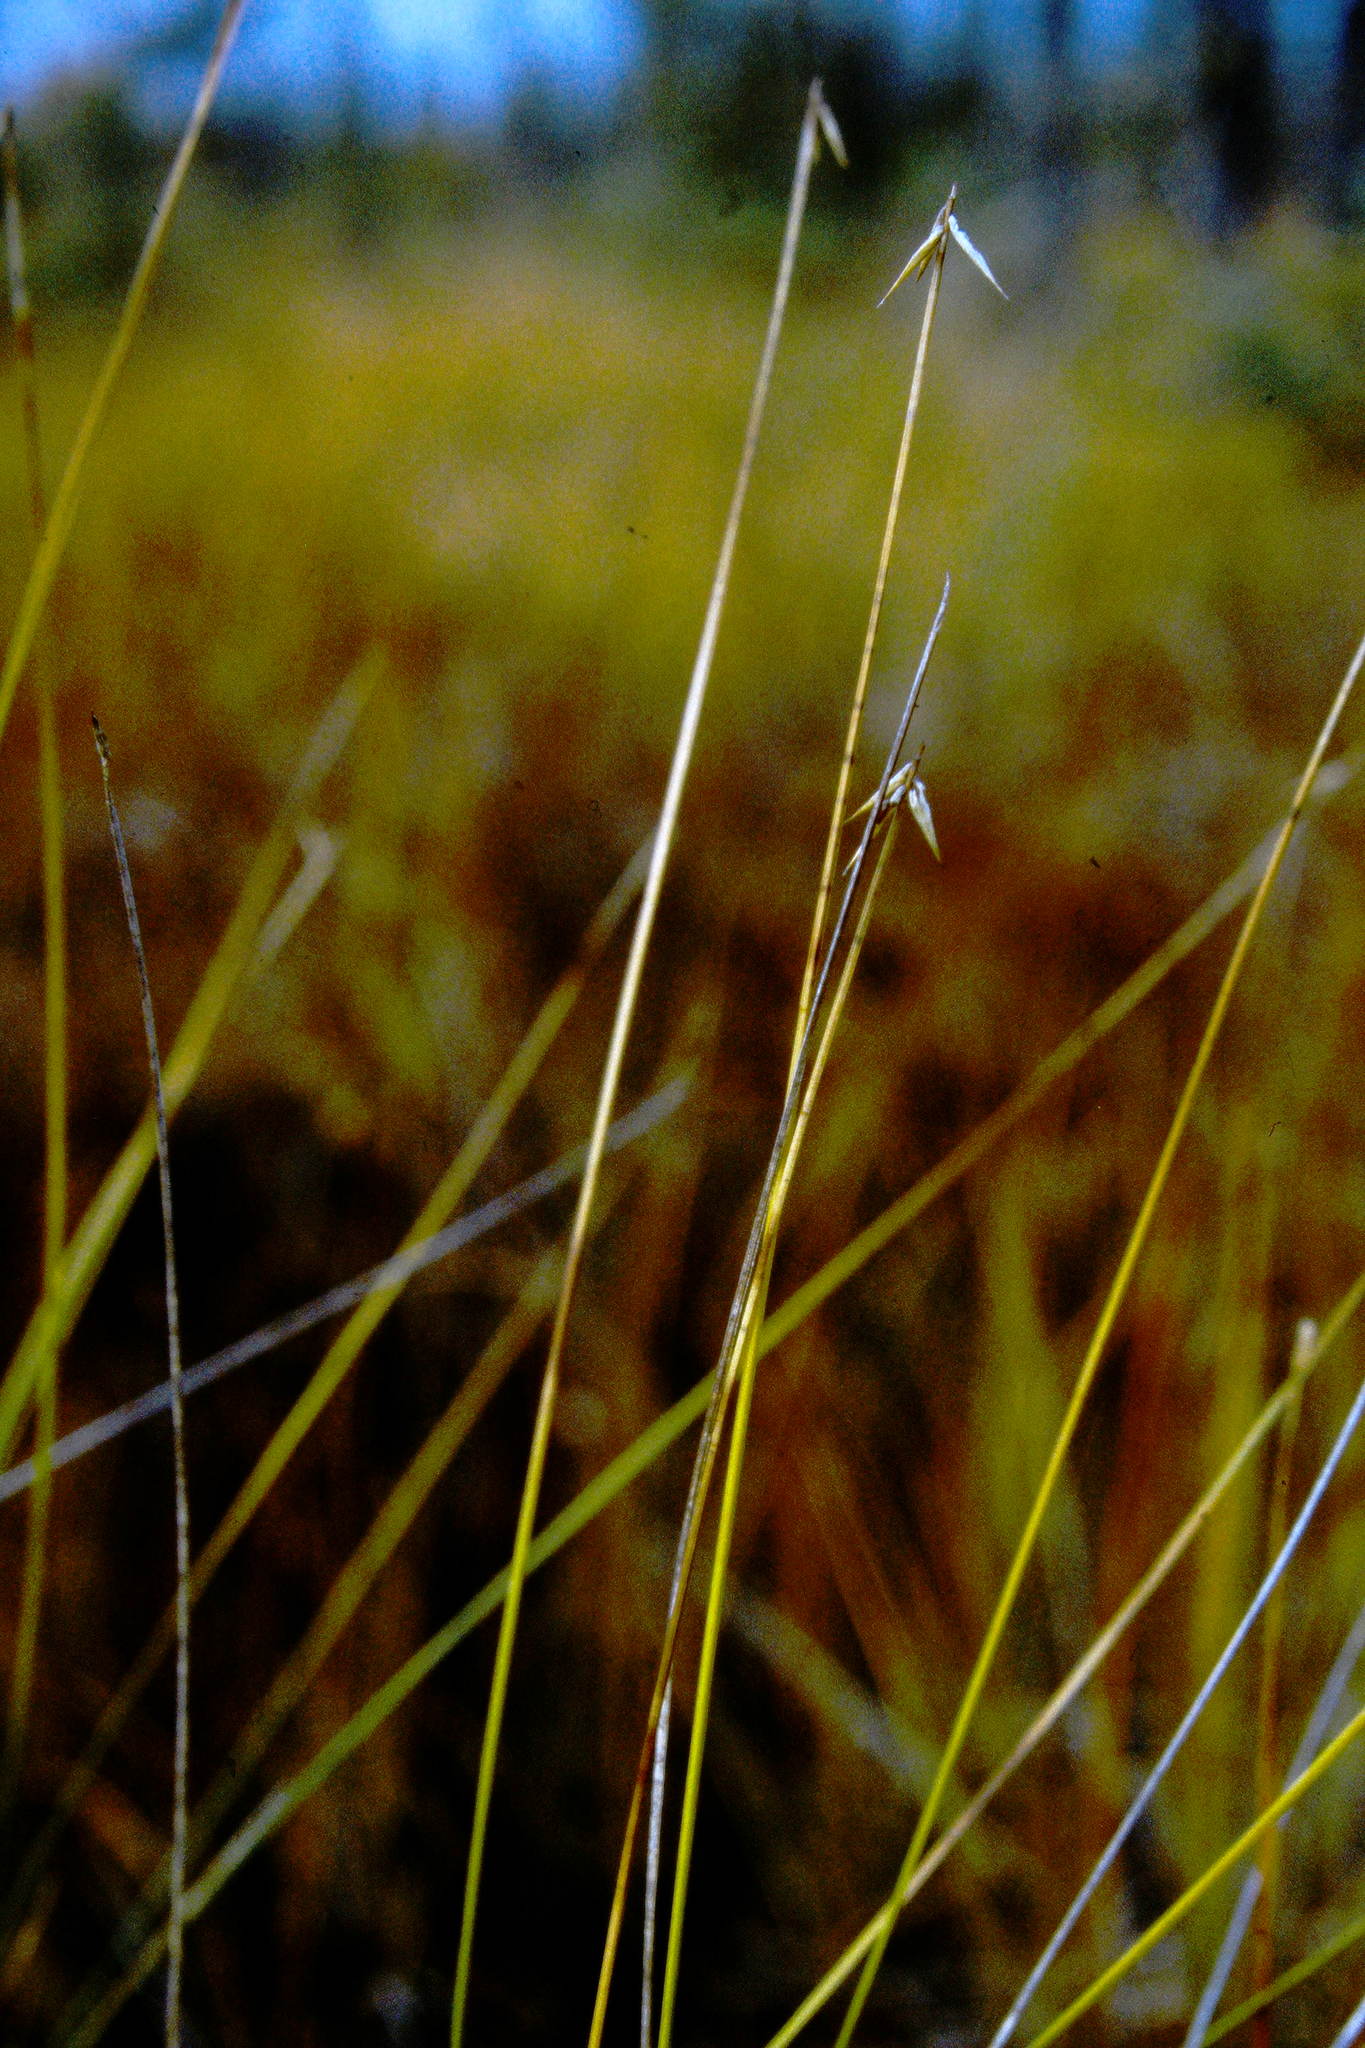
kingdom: Plantae
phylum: Tracheophyta
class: Liliopsida
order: Poales
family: Cyperaceae
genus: Carex
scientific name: Carex pauciflora
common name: Few-flowered sedge
